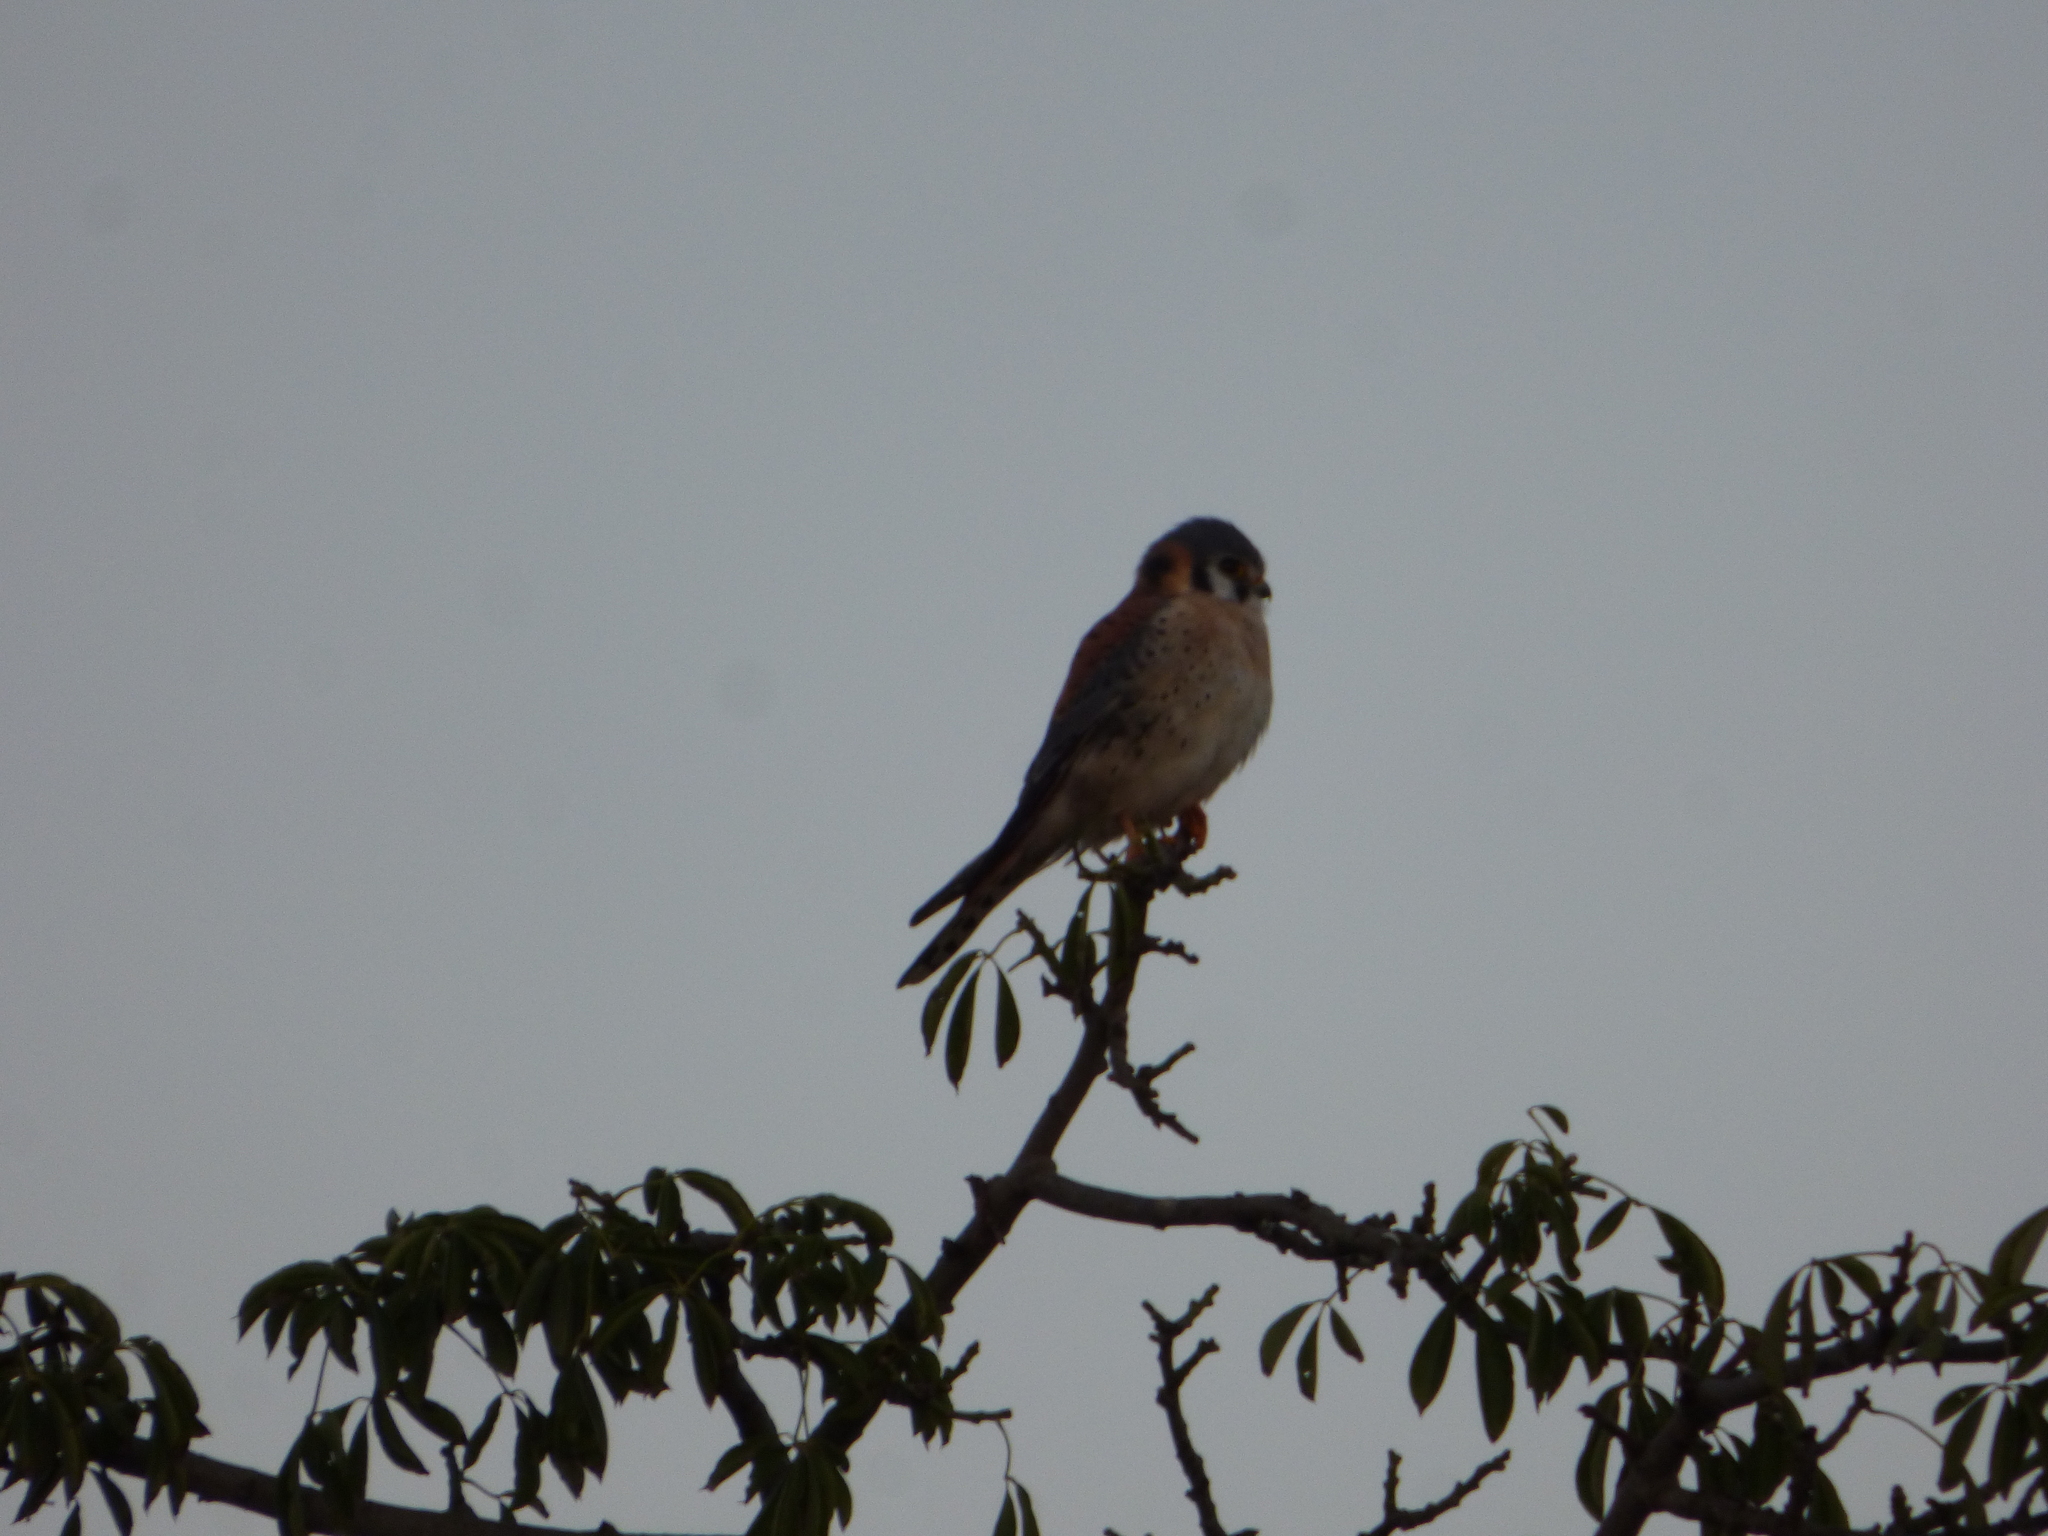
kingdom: Animalia
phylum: Chordata
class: Aves
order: Falconiformes
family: Falconidae
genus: Falco
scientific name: Falco sparverius
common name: American kestrel
